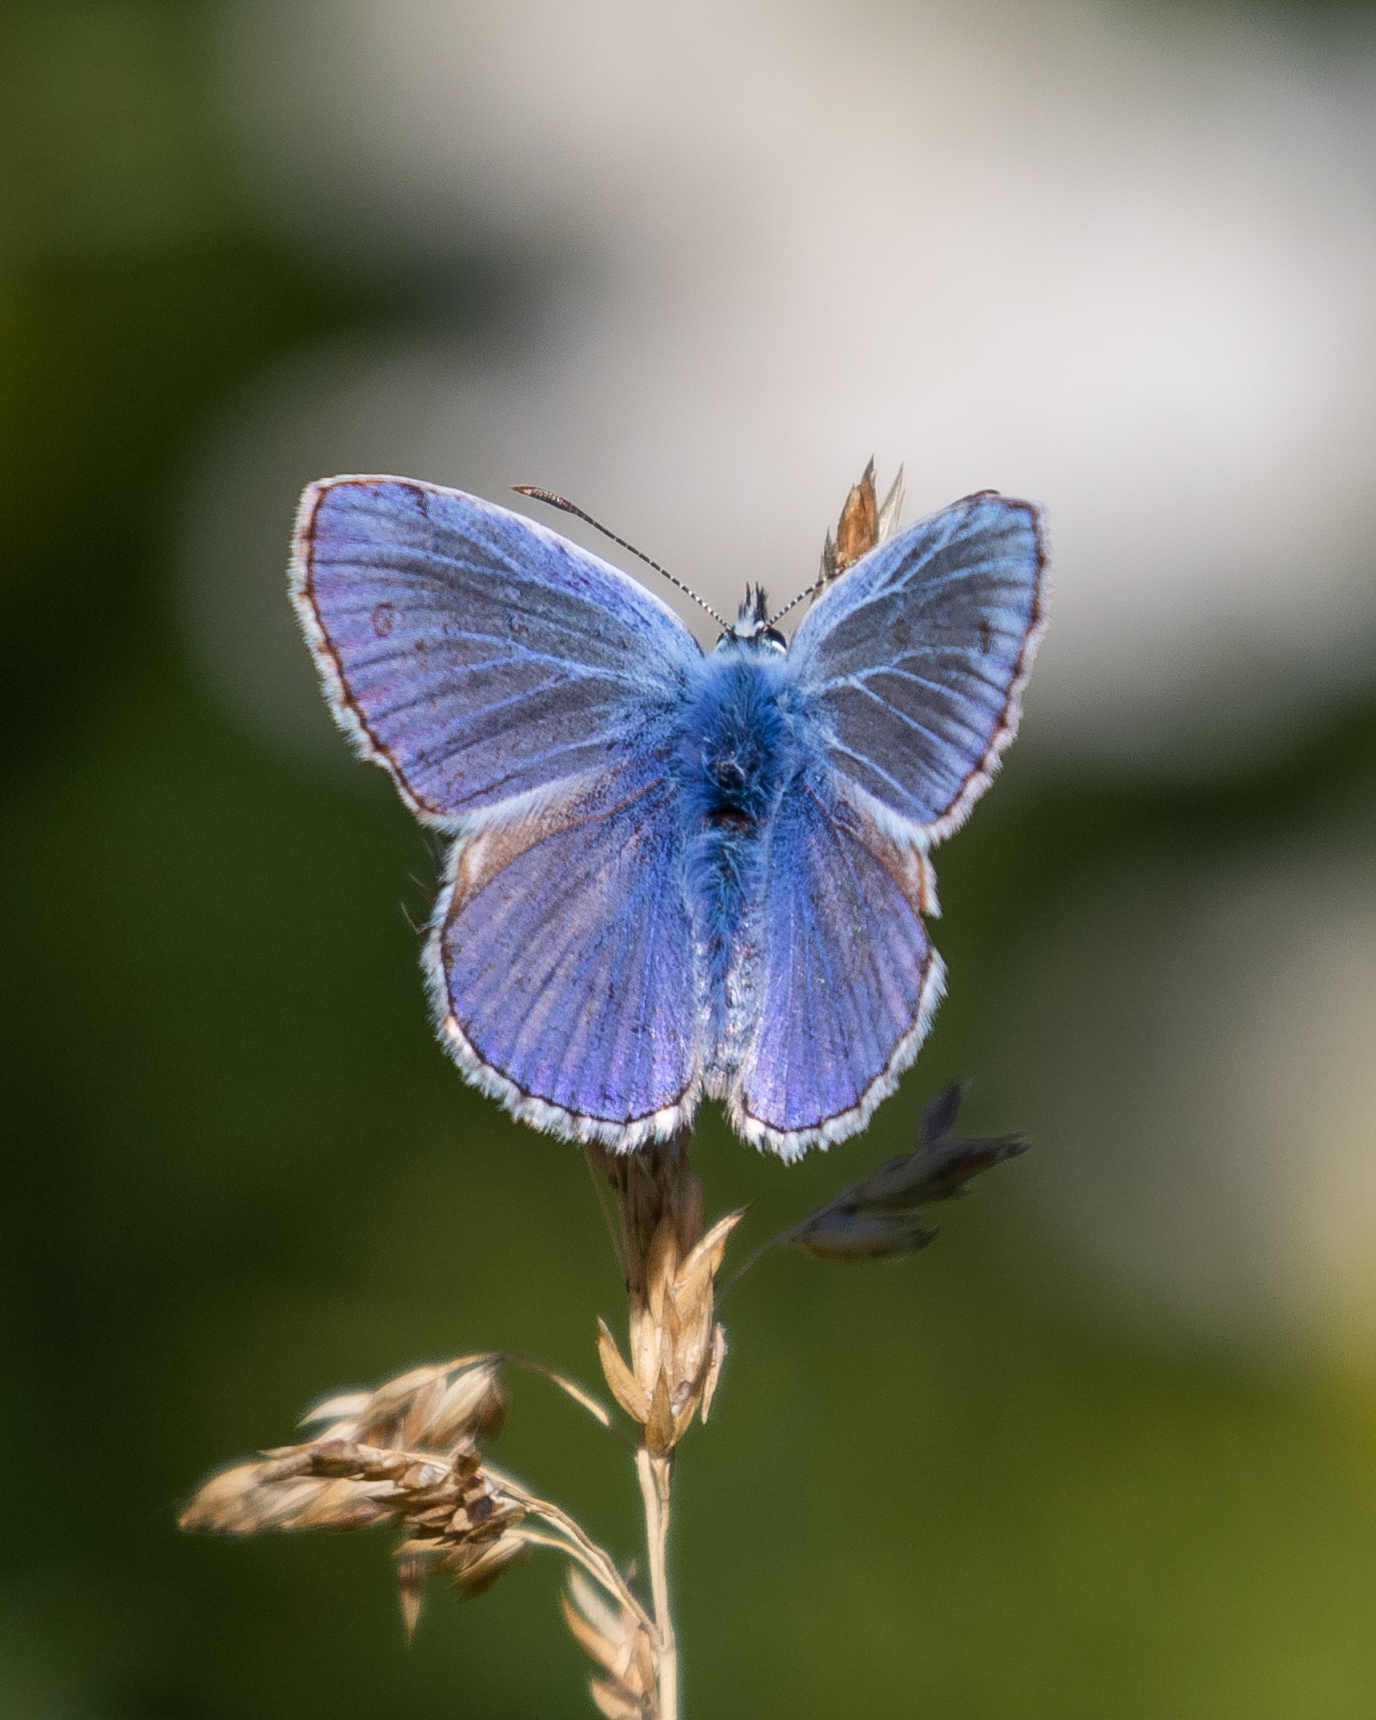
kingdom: Animalia
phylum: Arthropoda
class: Insecta
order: Lepidoptera
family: Lycaenidae
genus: Polyommatus
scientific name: Polyommatus icarus
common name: Common blue
